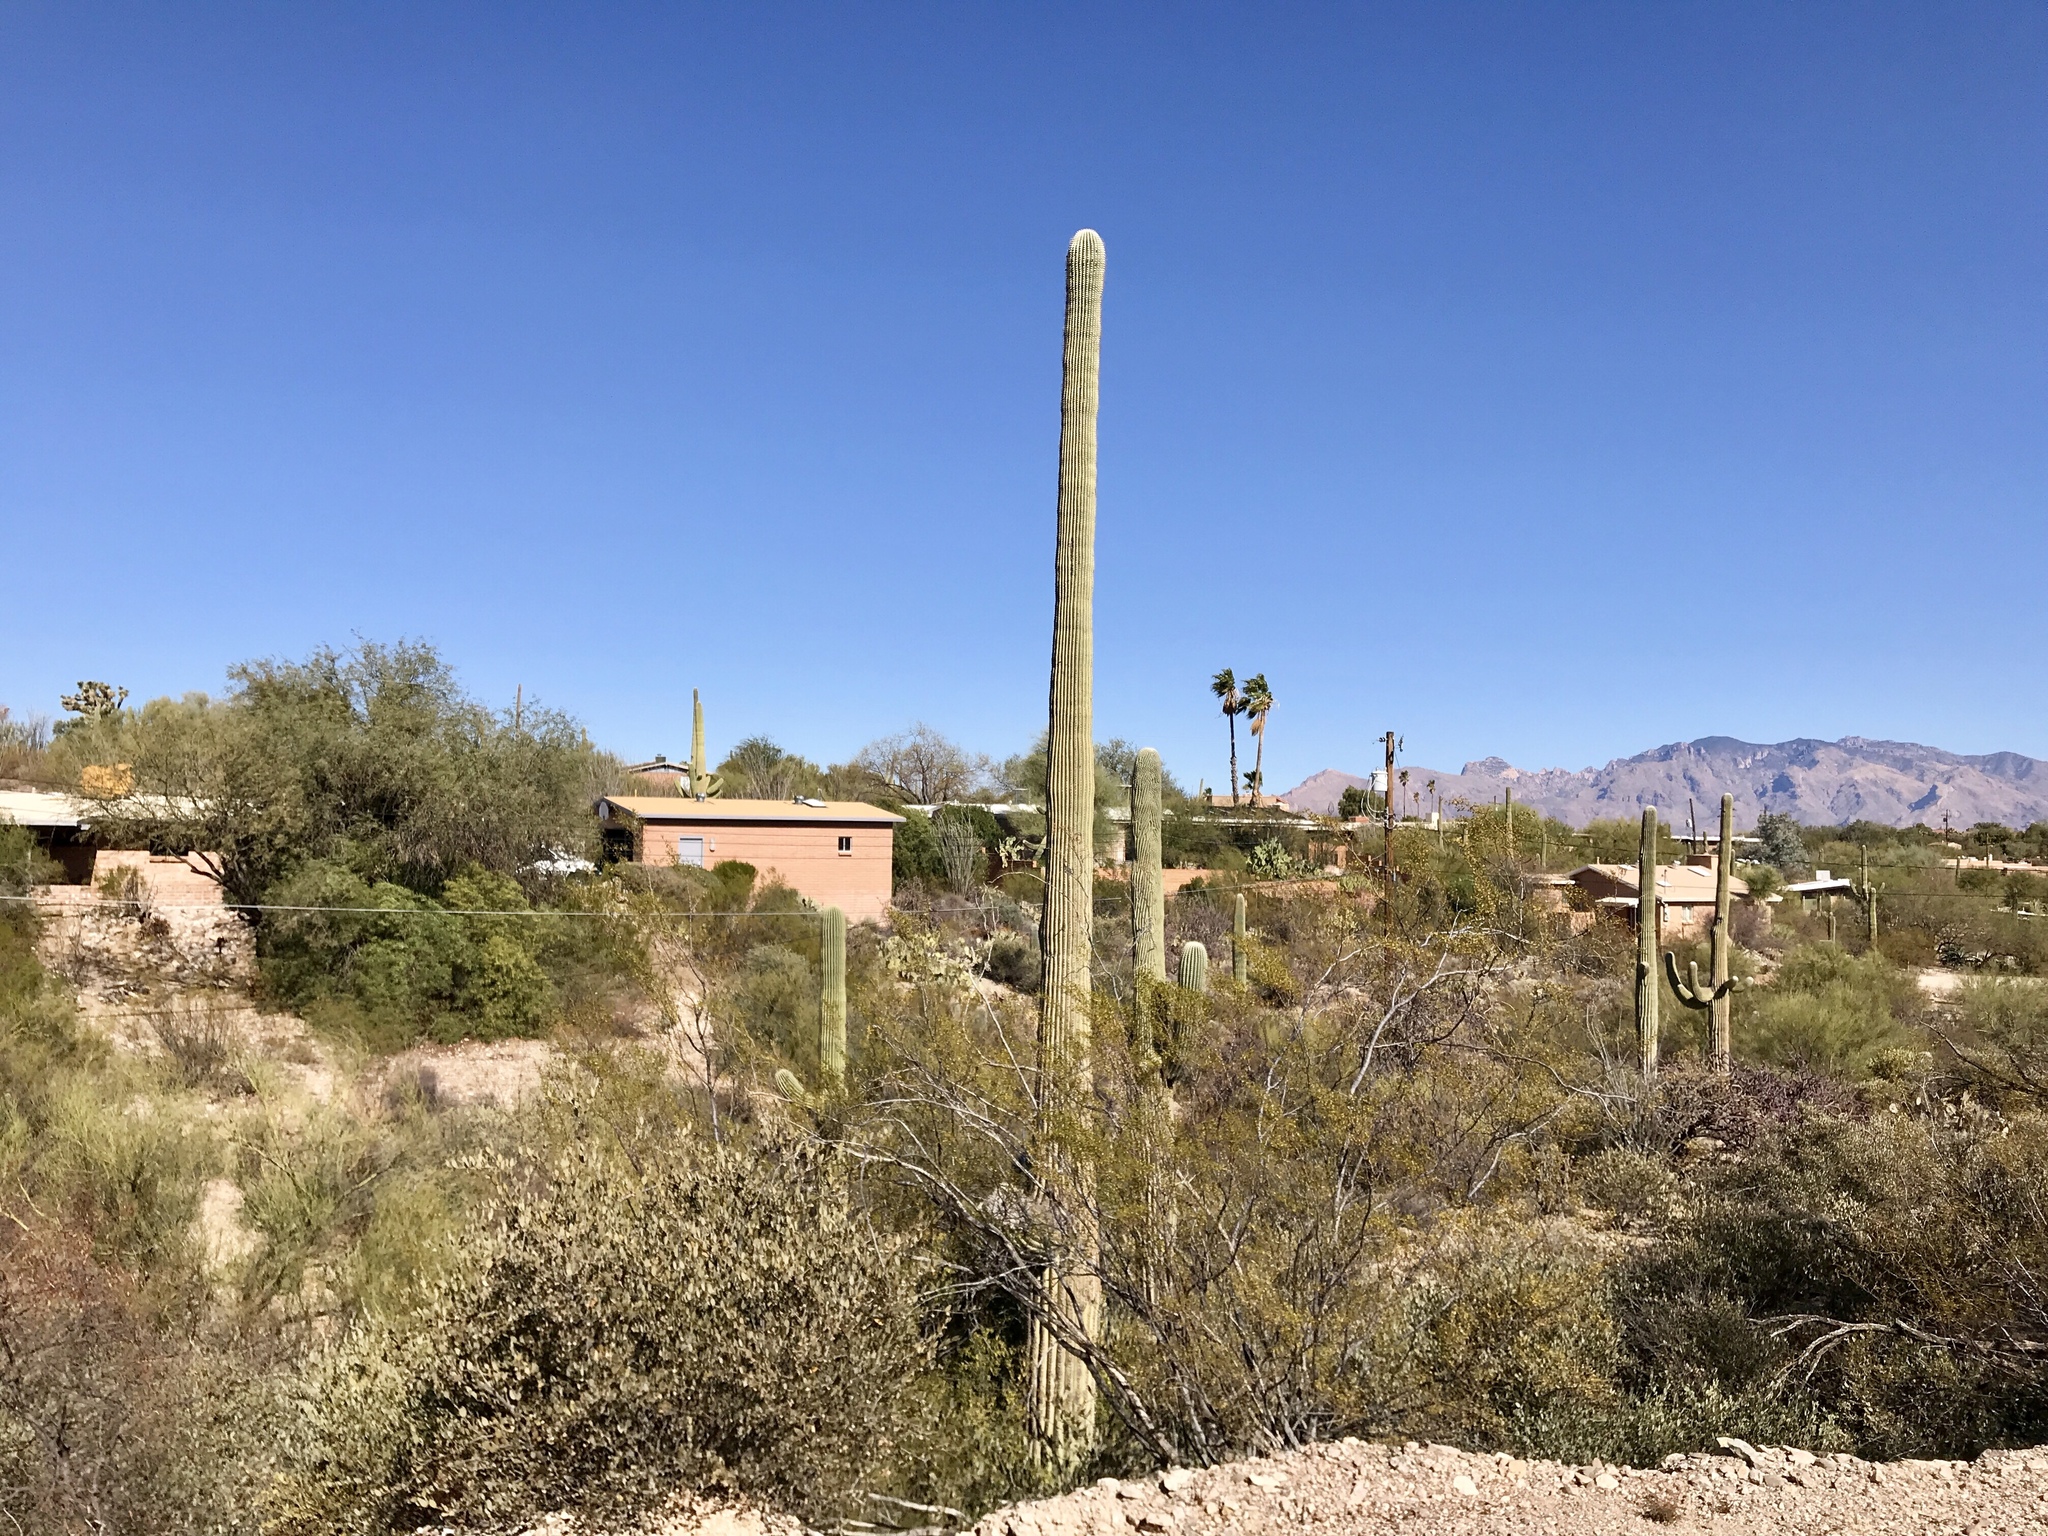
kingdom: Plantae
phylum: Tracheophyta
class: Magnoliopsida
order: Caryophyllales
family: Cactaceae
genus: Carnegiea
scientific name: Carnegiea gigantea
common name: Saguaro
